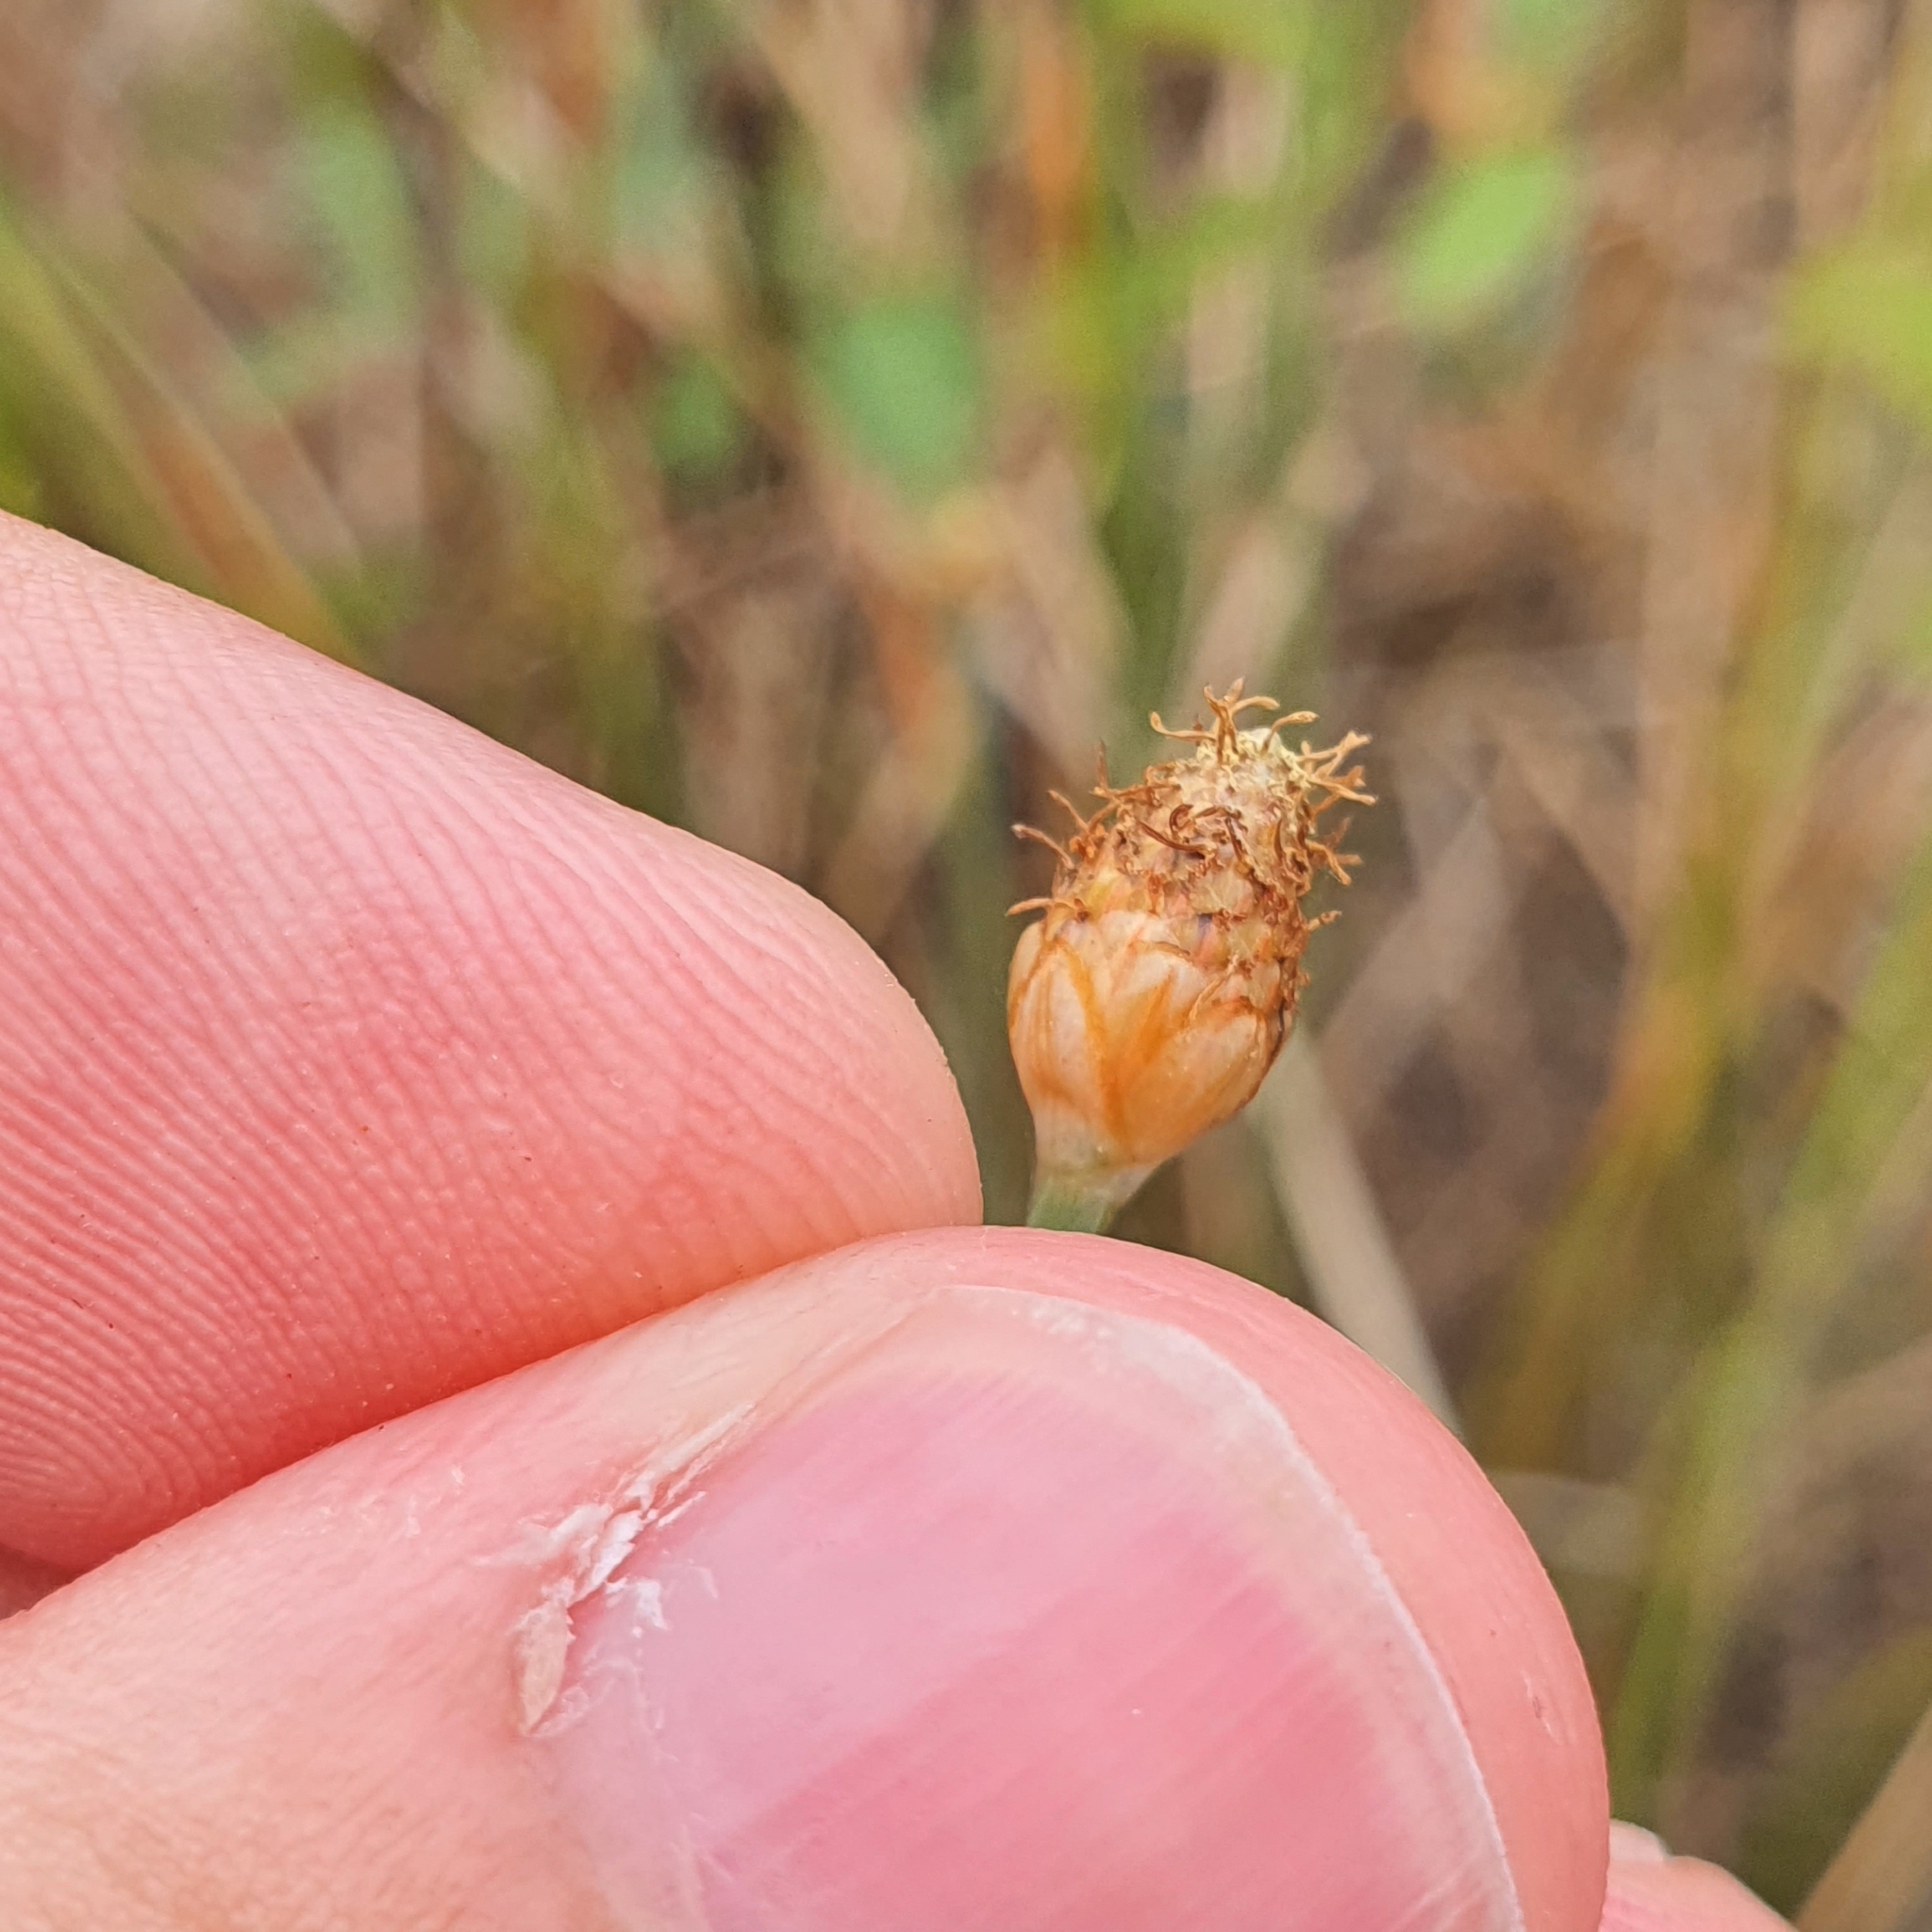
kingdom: Plantae
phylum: Tracheophyta
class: Liliopsida
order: Poales
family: Cyperaceae
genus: Fimbristylis
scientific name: Fimbristylis tetragona
